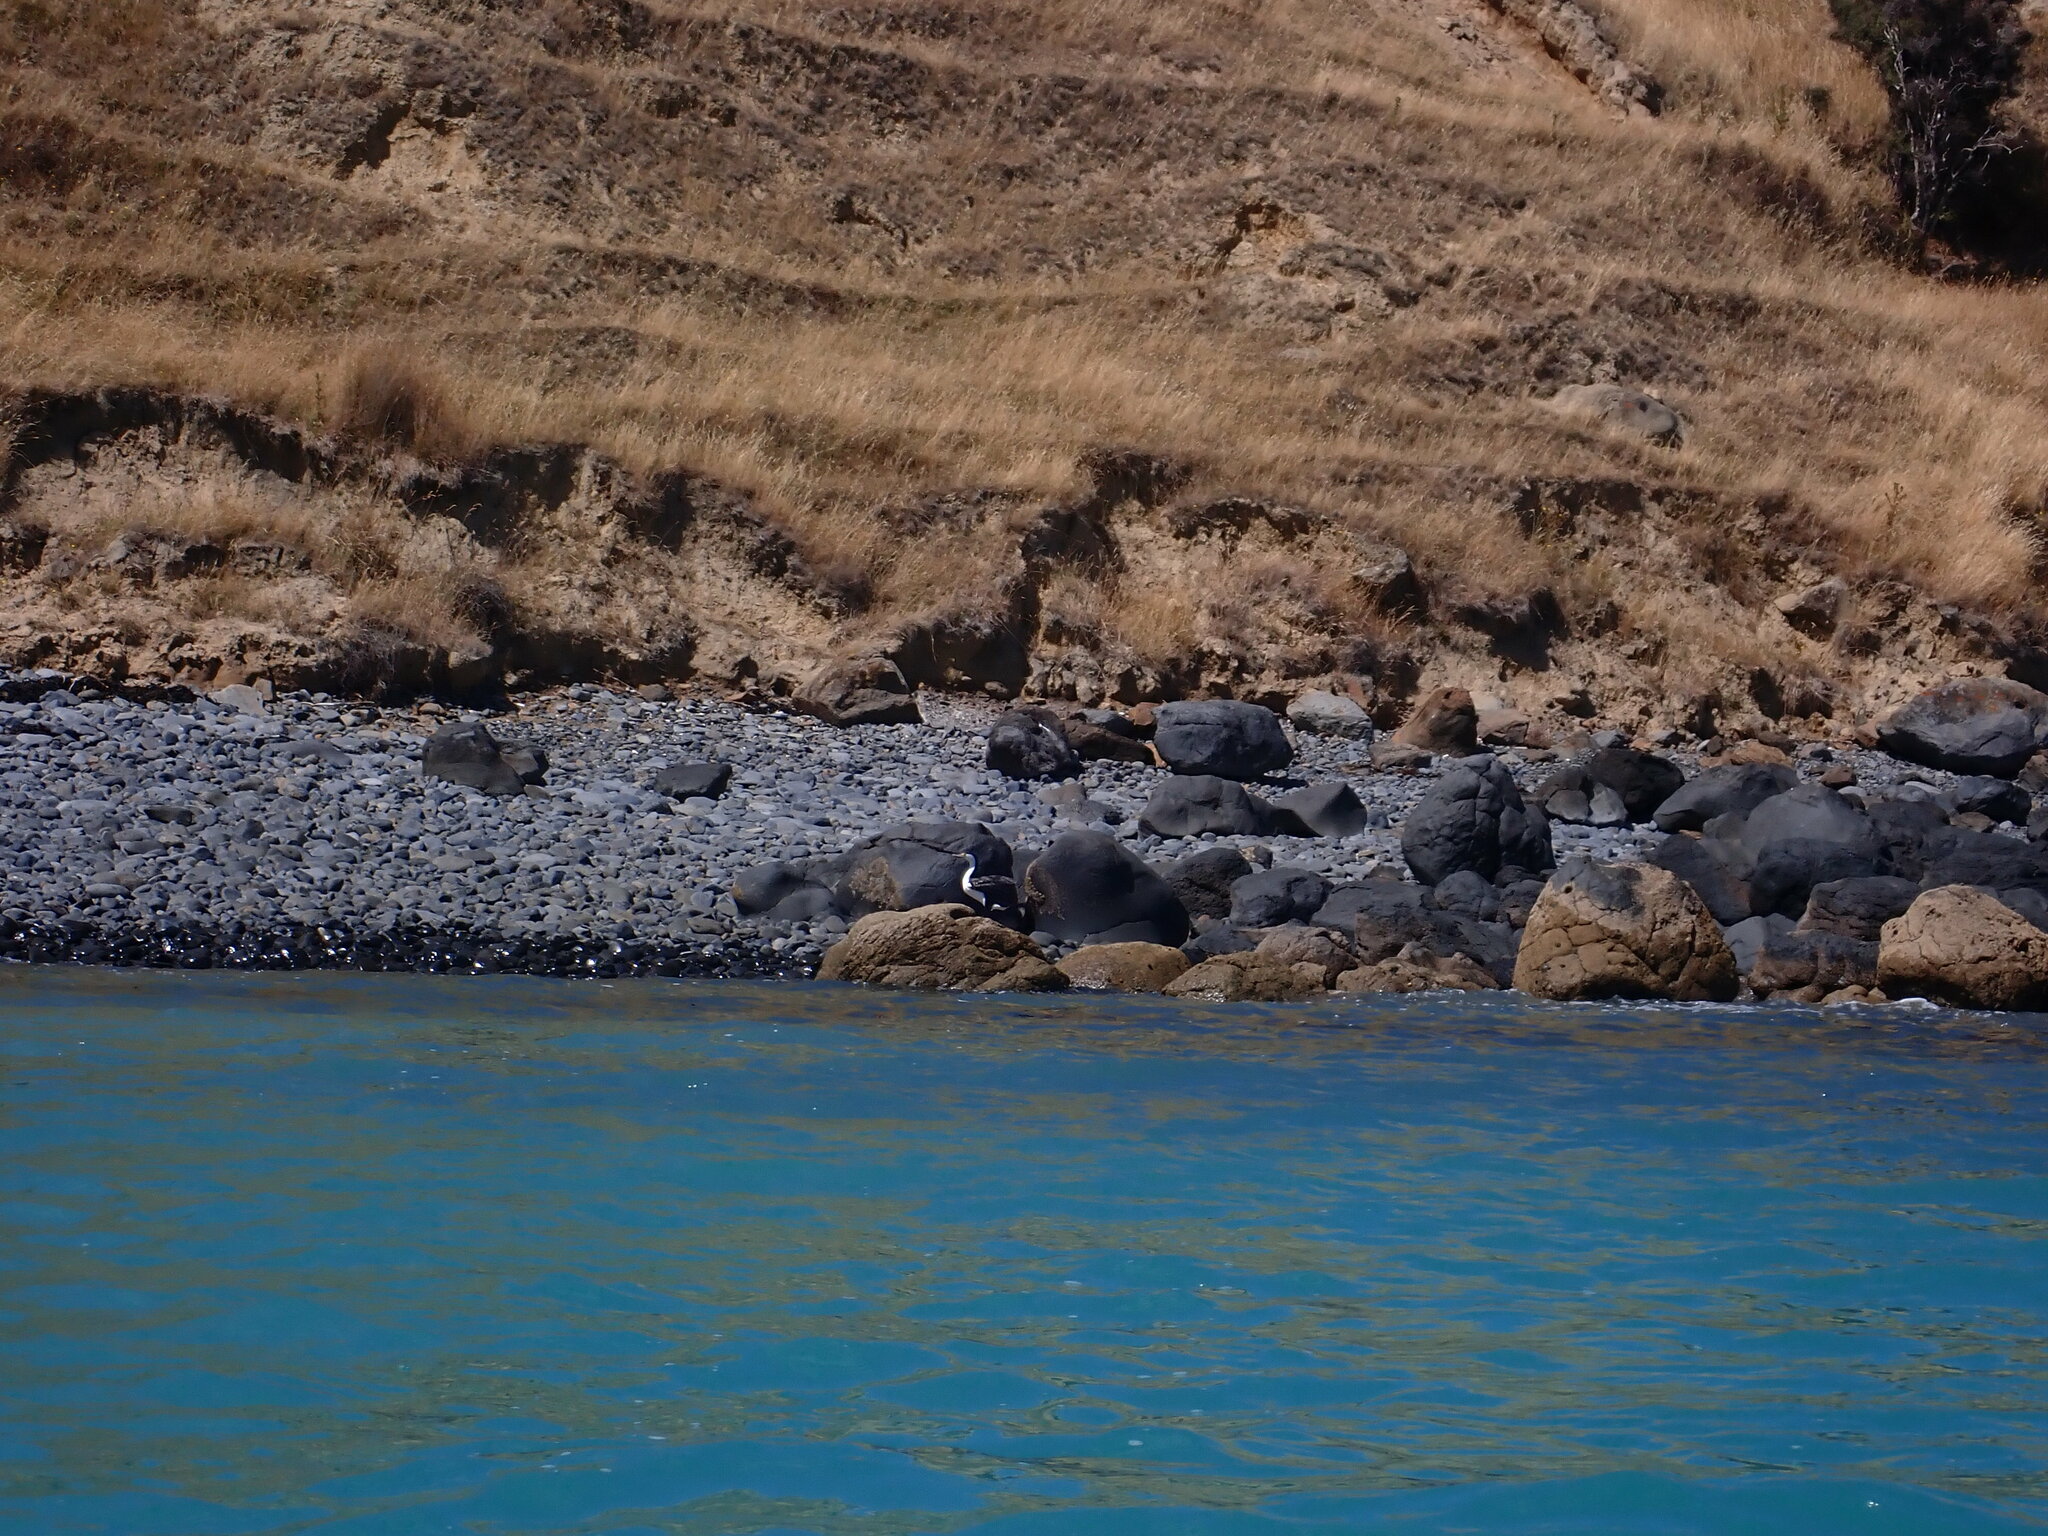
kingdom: Animalia
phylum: Chordata
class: Aves
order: Suliformes
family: Phalacrocoracidae
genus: Phalacrocorax
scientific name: Phalacrocorax varius
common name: Pied cormorant
